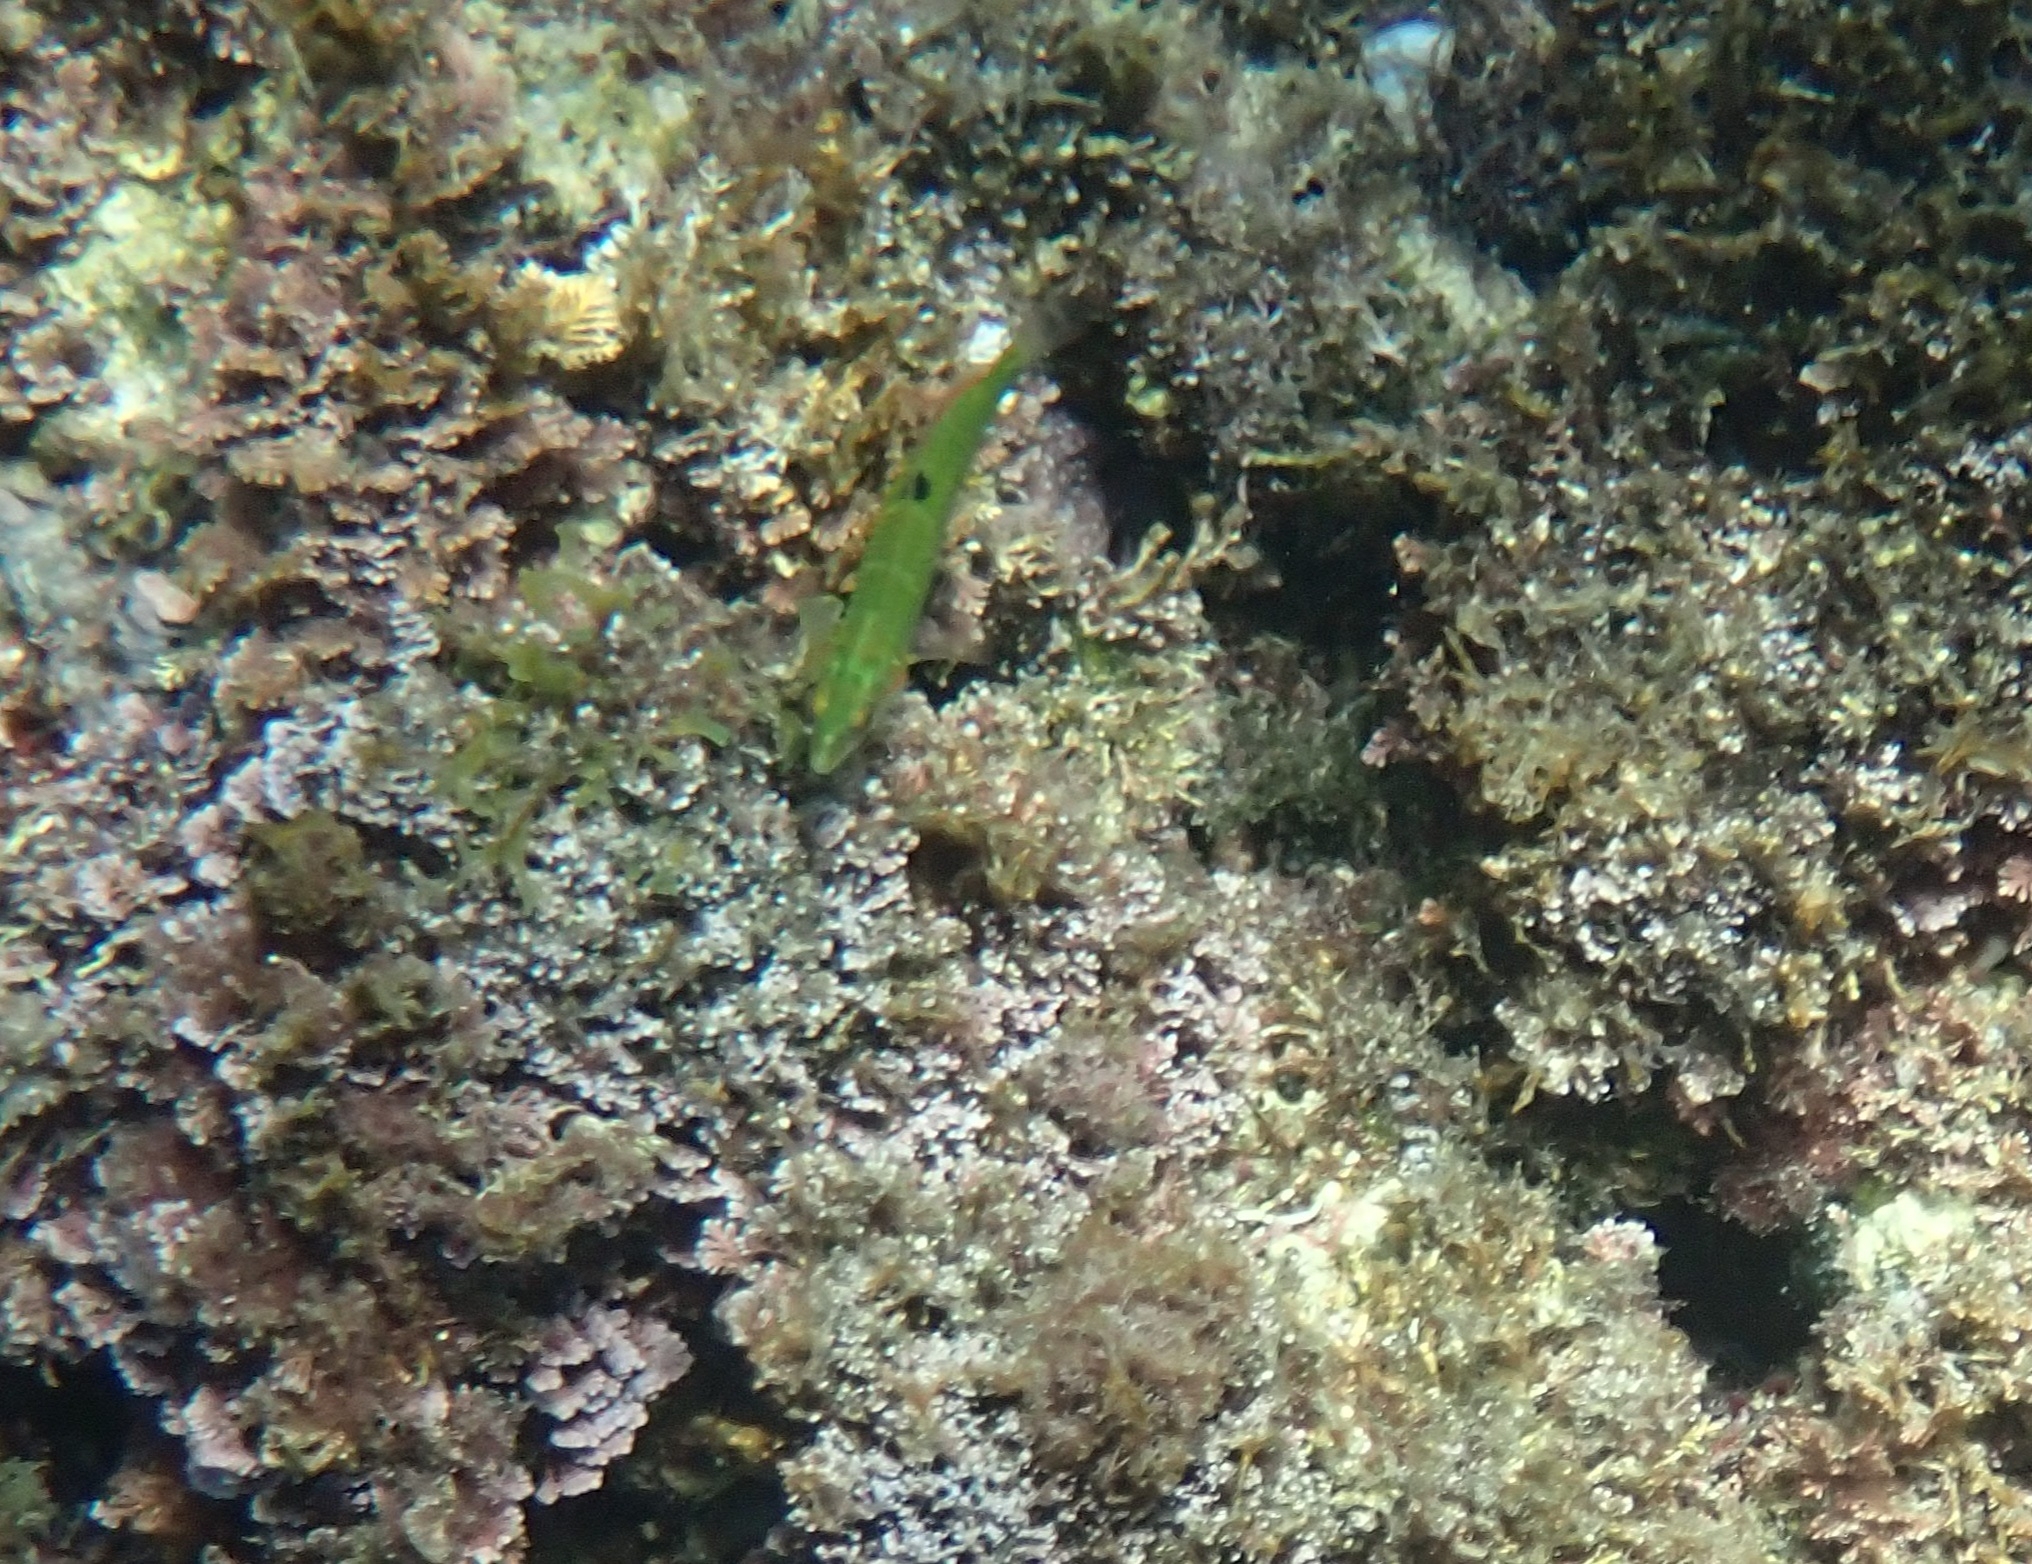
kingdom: Animalia
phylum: Chordata
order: Perciformes
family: Labridae
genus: Thalassoma
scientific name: Thalassoma pavo
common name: Ornate wrasse
